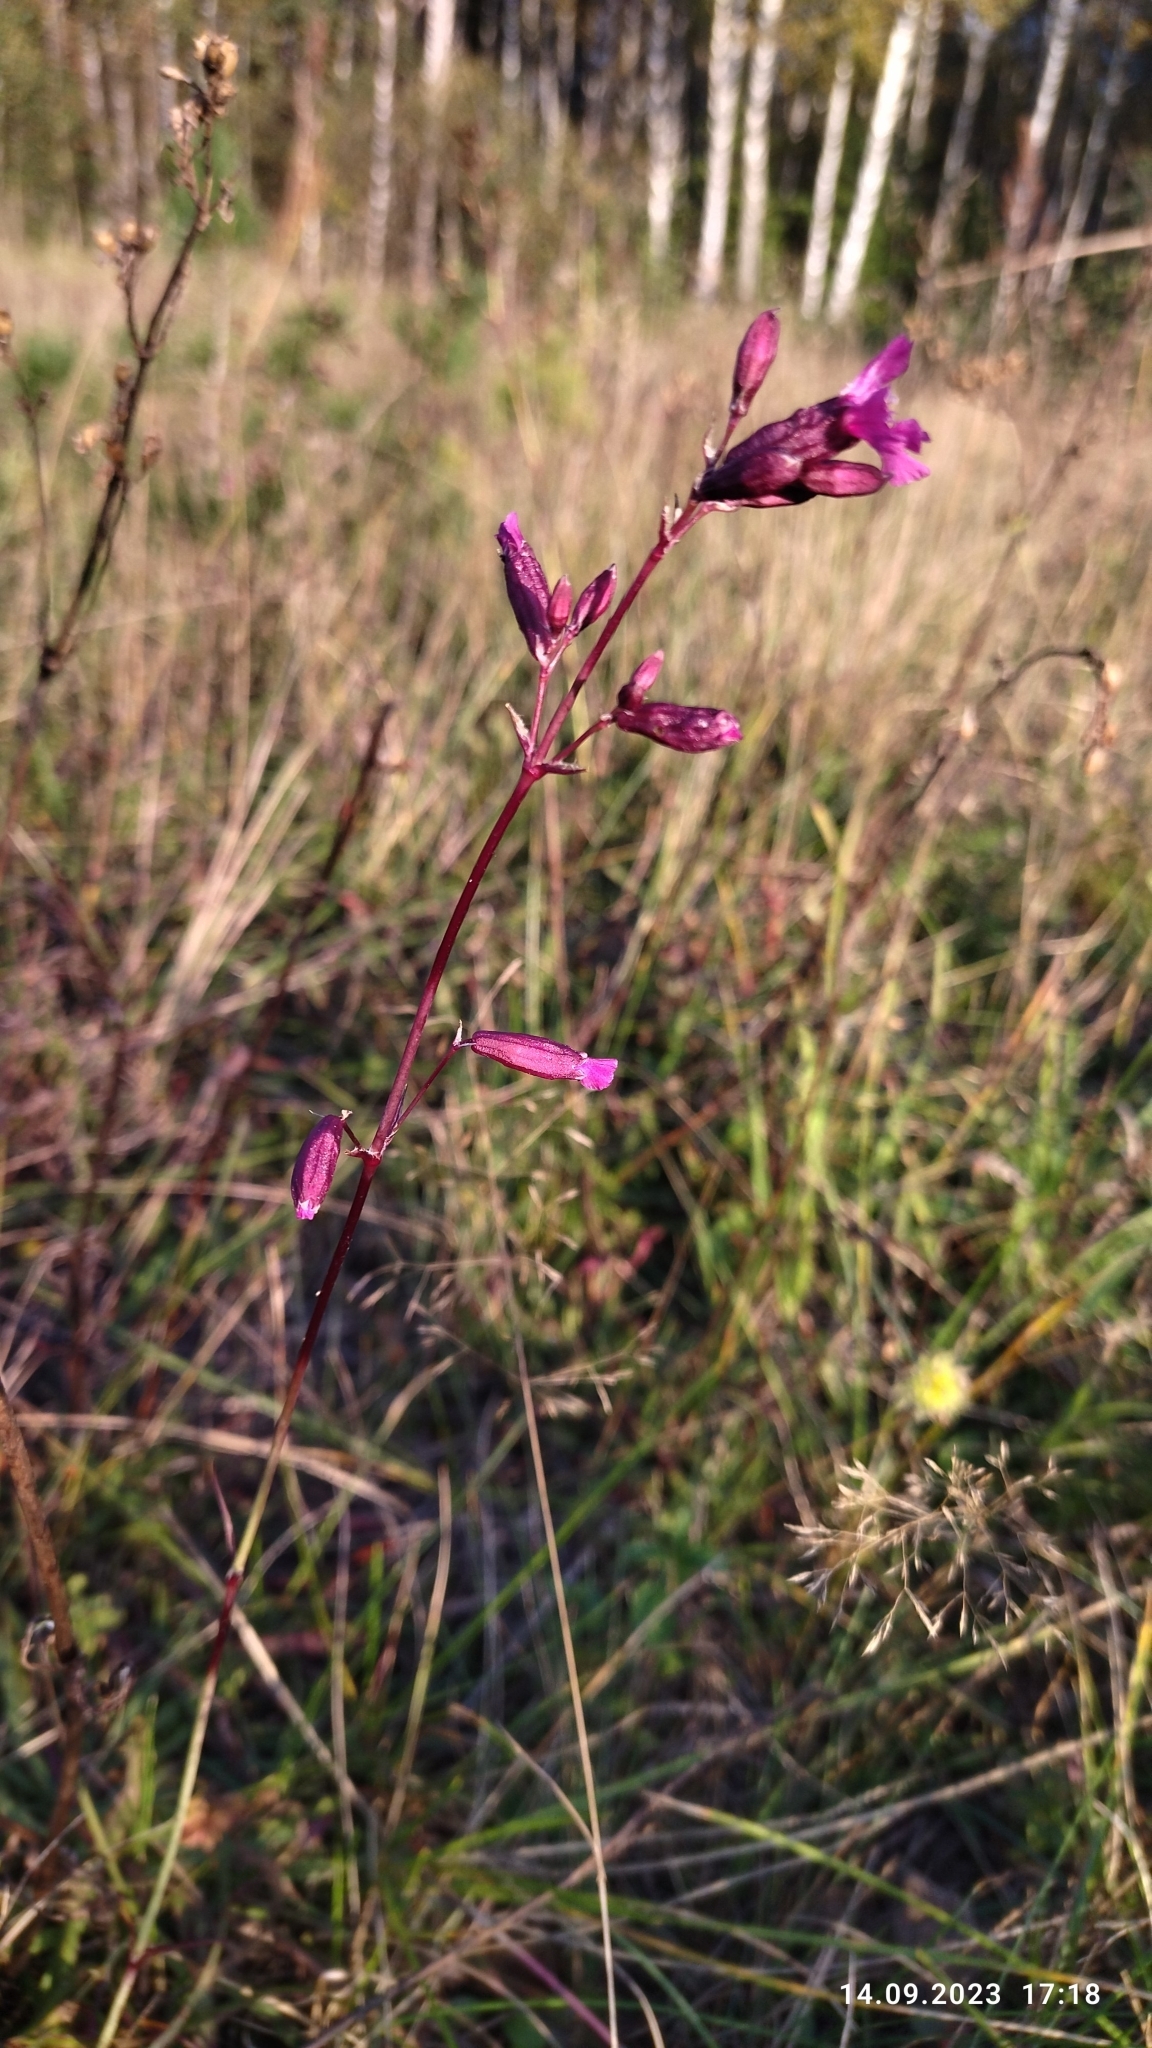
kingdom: Plantae
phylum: Tracheophyta
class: Magnoliopsida
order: Caryophyllales
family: Caryophyllaceae
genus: Viscaria
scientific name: Viscaria vulgaris
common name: Clammy campion
